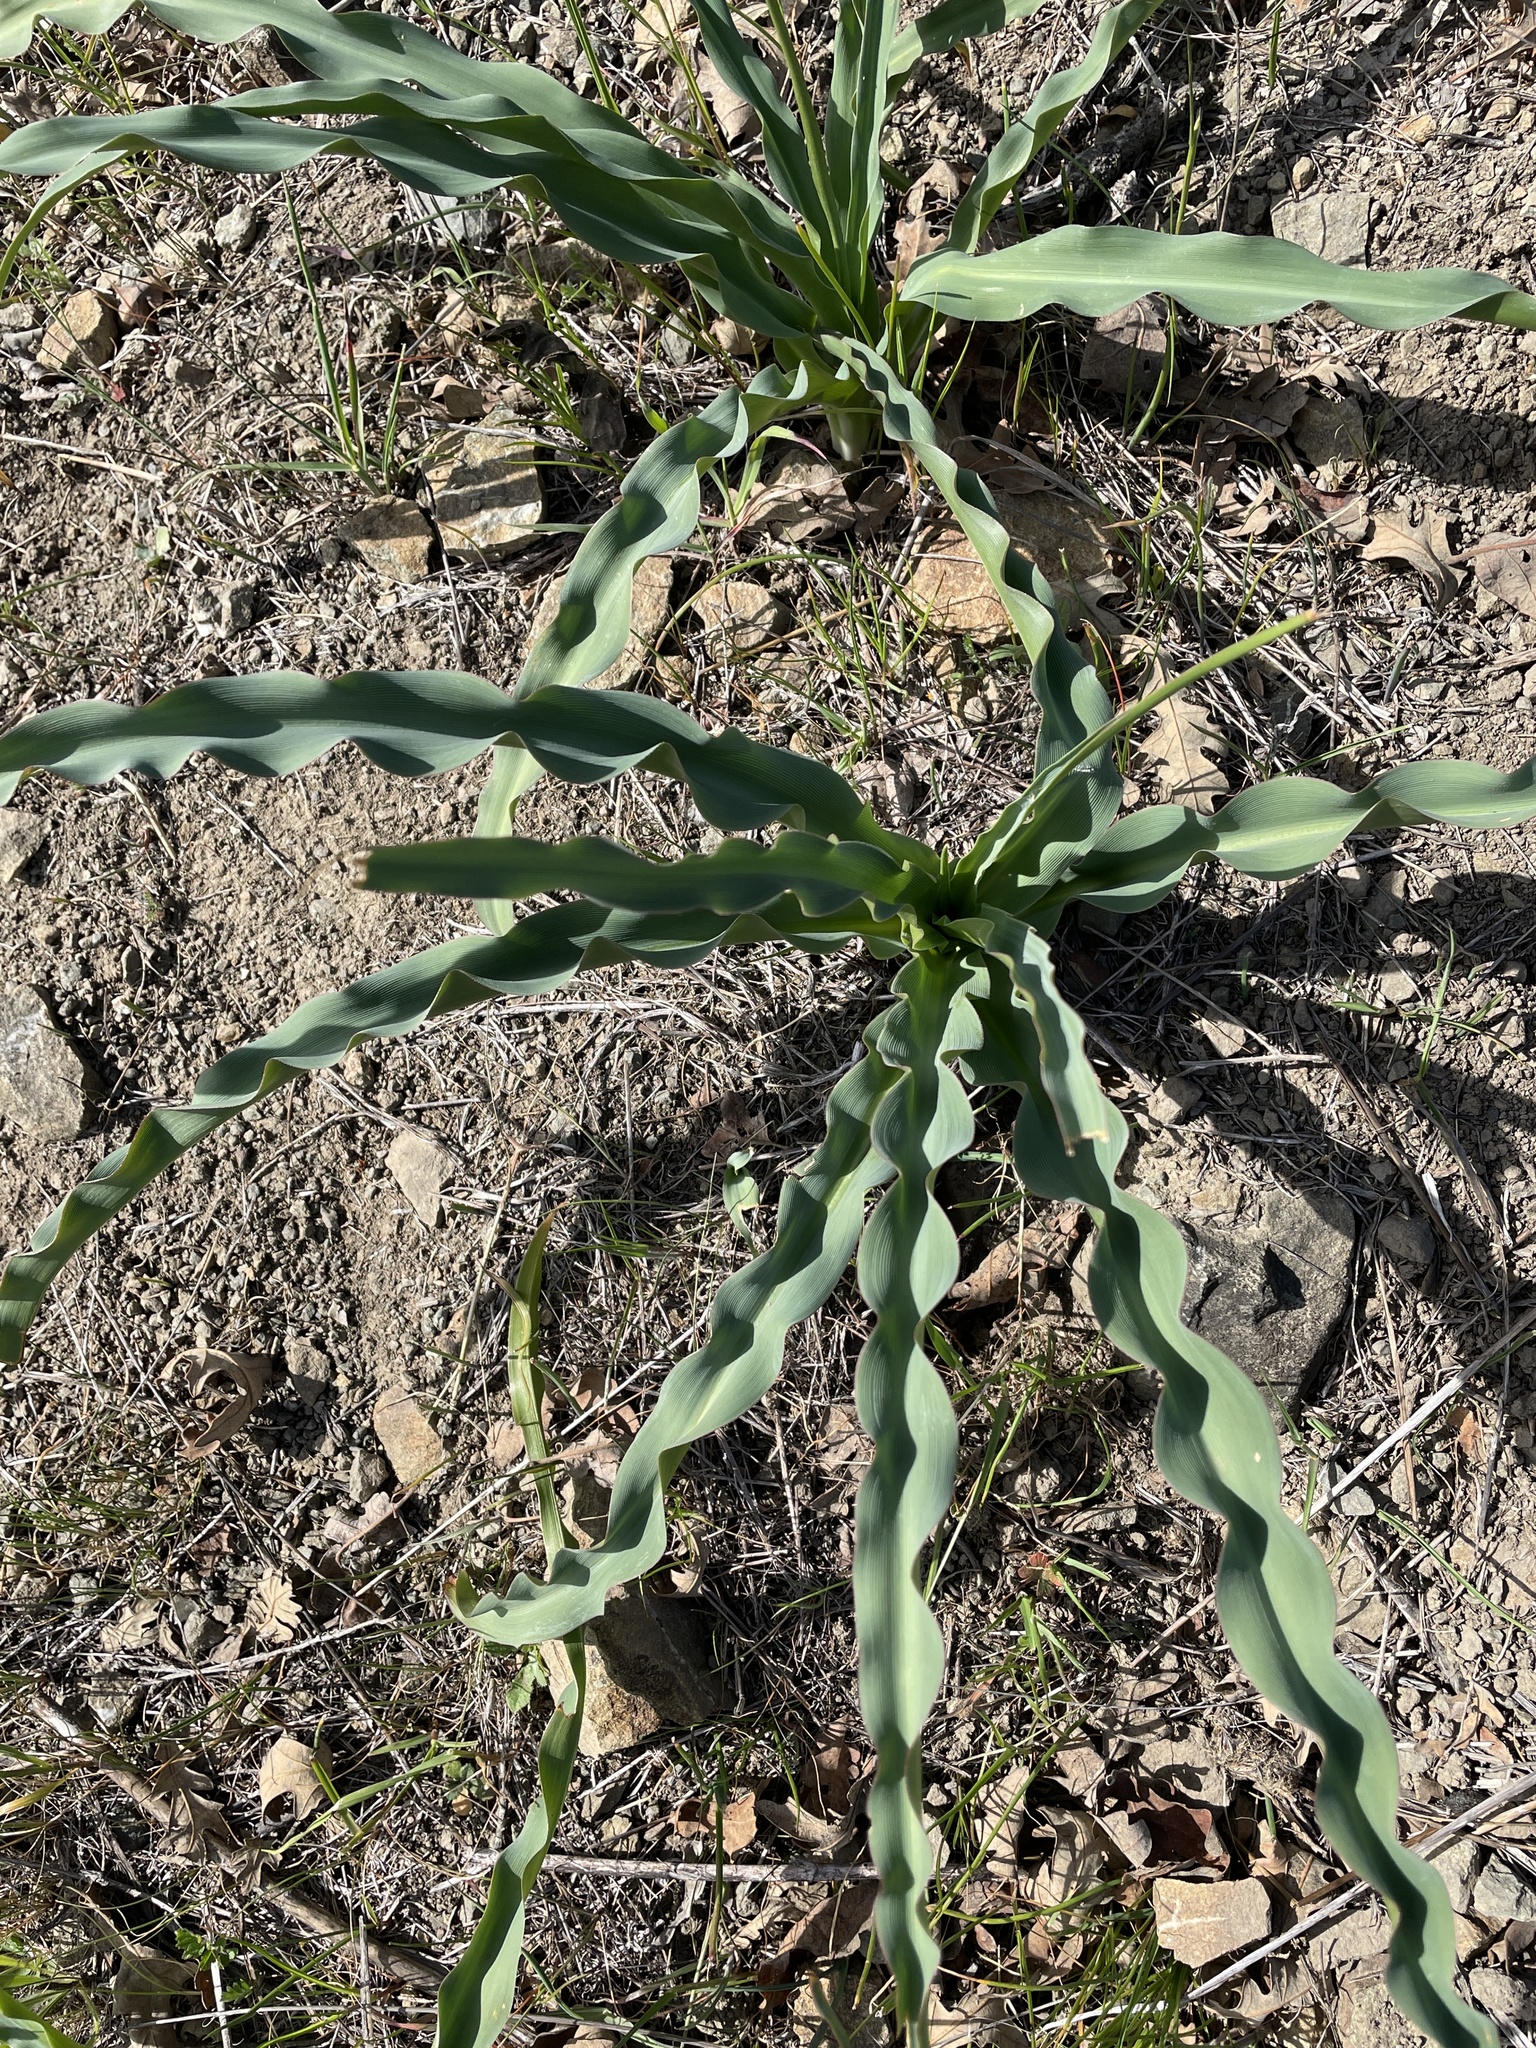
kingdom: Plantae
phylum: Tracheophyta
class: Liliopsida
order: Asparagales
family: Asparagaceae
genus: Chlorogalum
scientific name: Chlorogalum pomeridianum
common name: Amole
